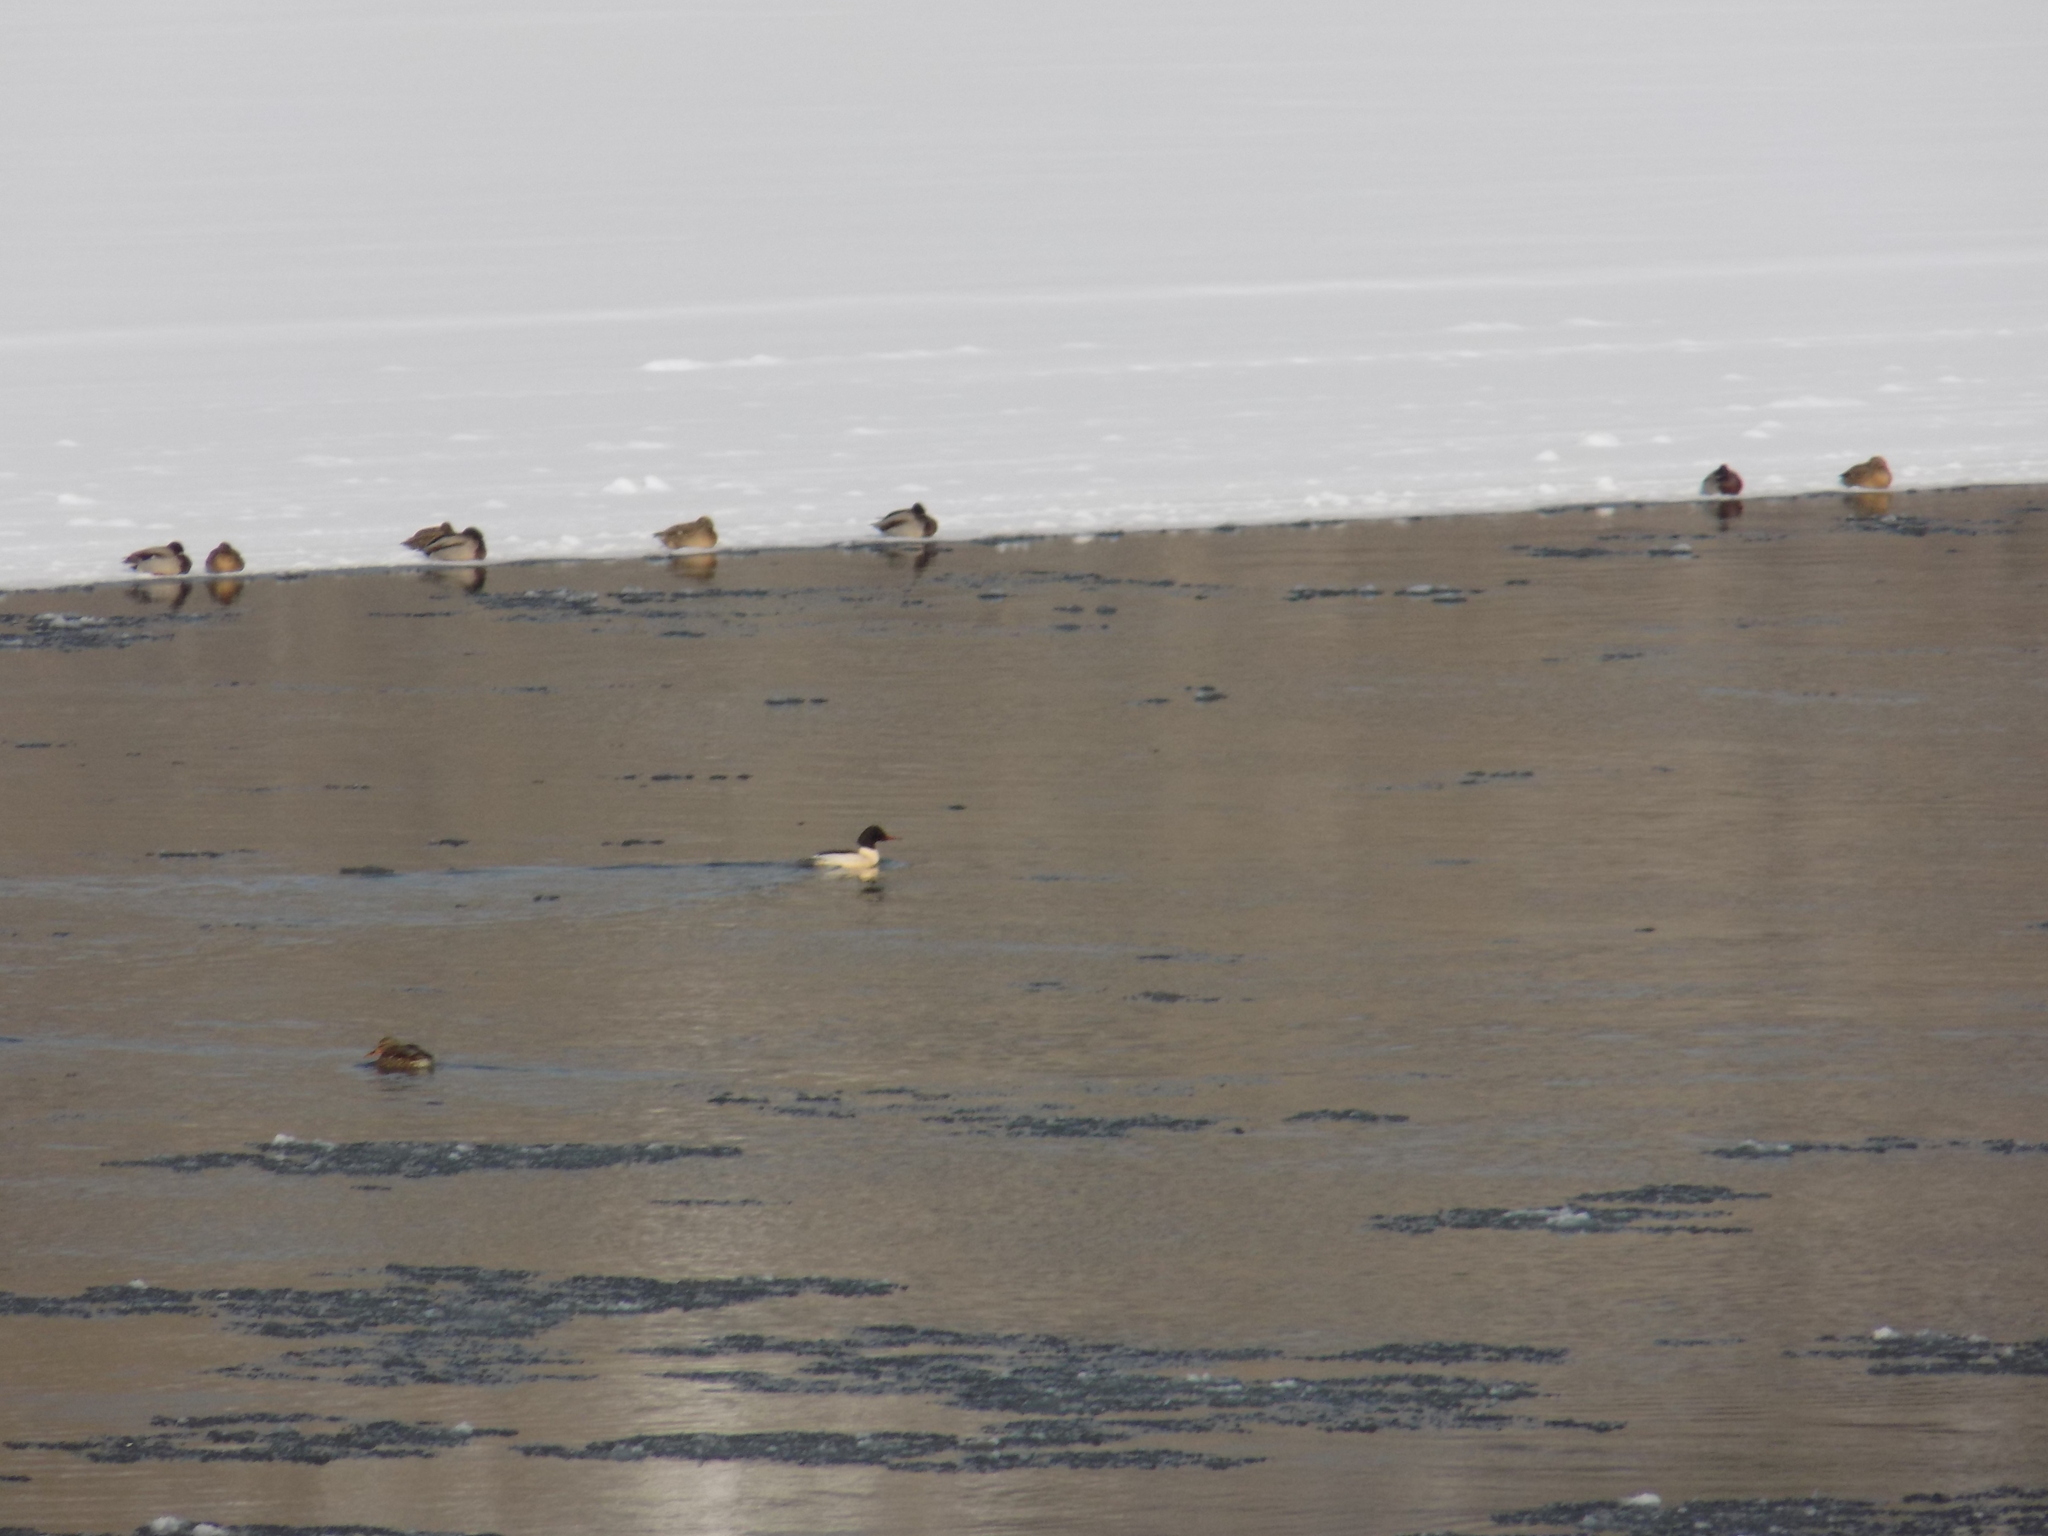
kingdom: Animalia
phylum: Chordata
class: Aves
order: Anseriformes
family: Anatidae
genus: Mergus
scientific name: Mergus merganser
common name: Common merganser
